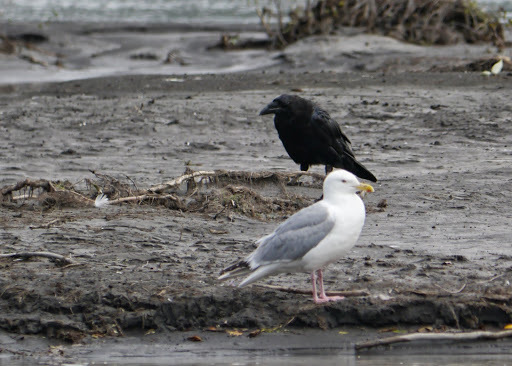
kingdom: Animalia
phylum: Chordata
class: Aves
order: Passeriformes
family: Corvidae
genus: Corvus
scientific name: Corvus corax
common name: Common raven
